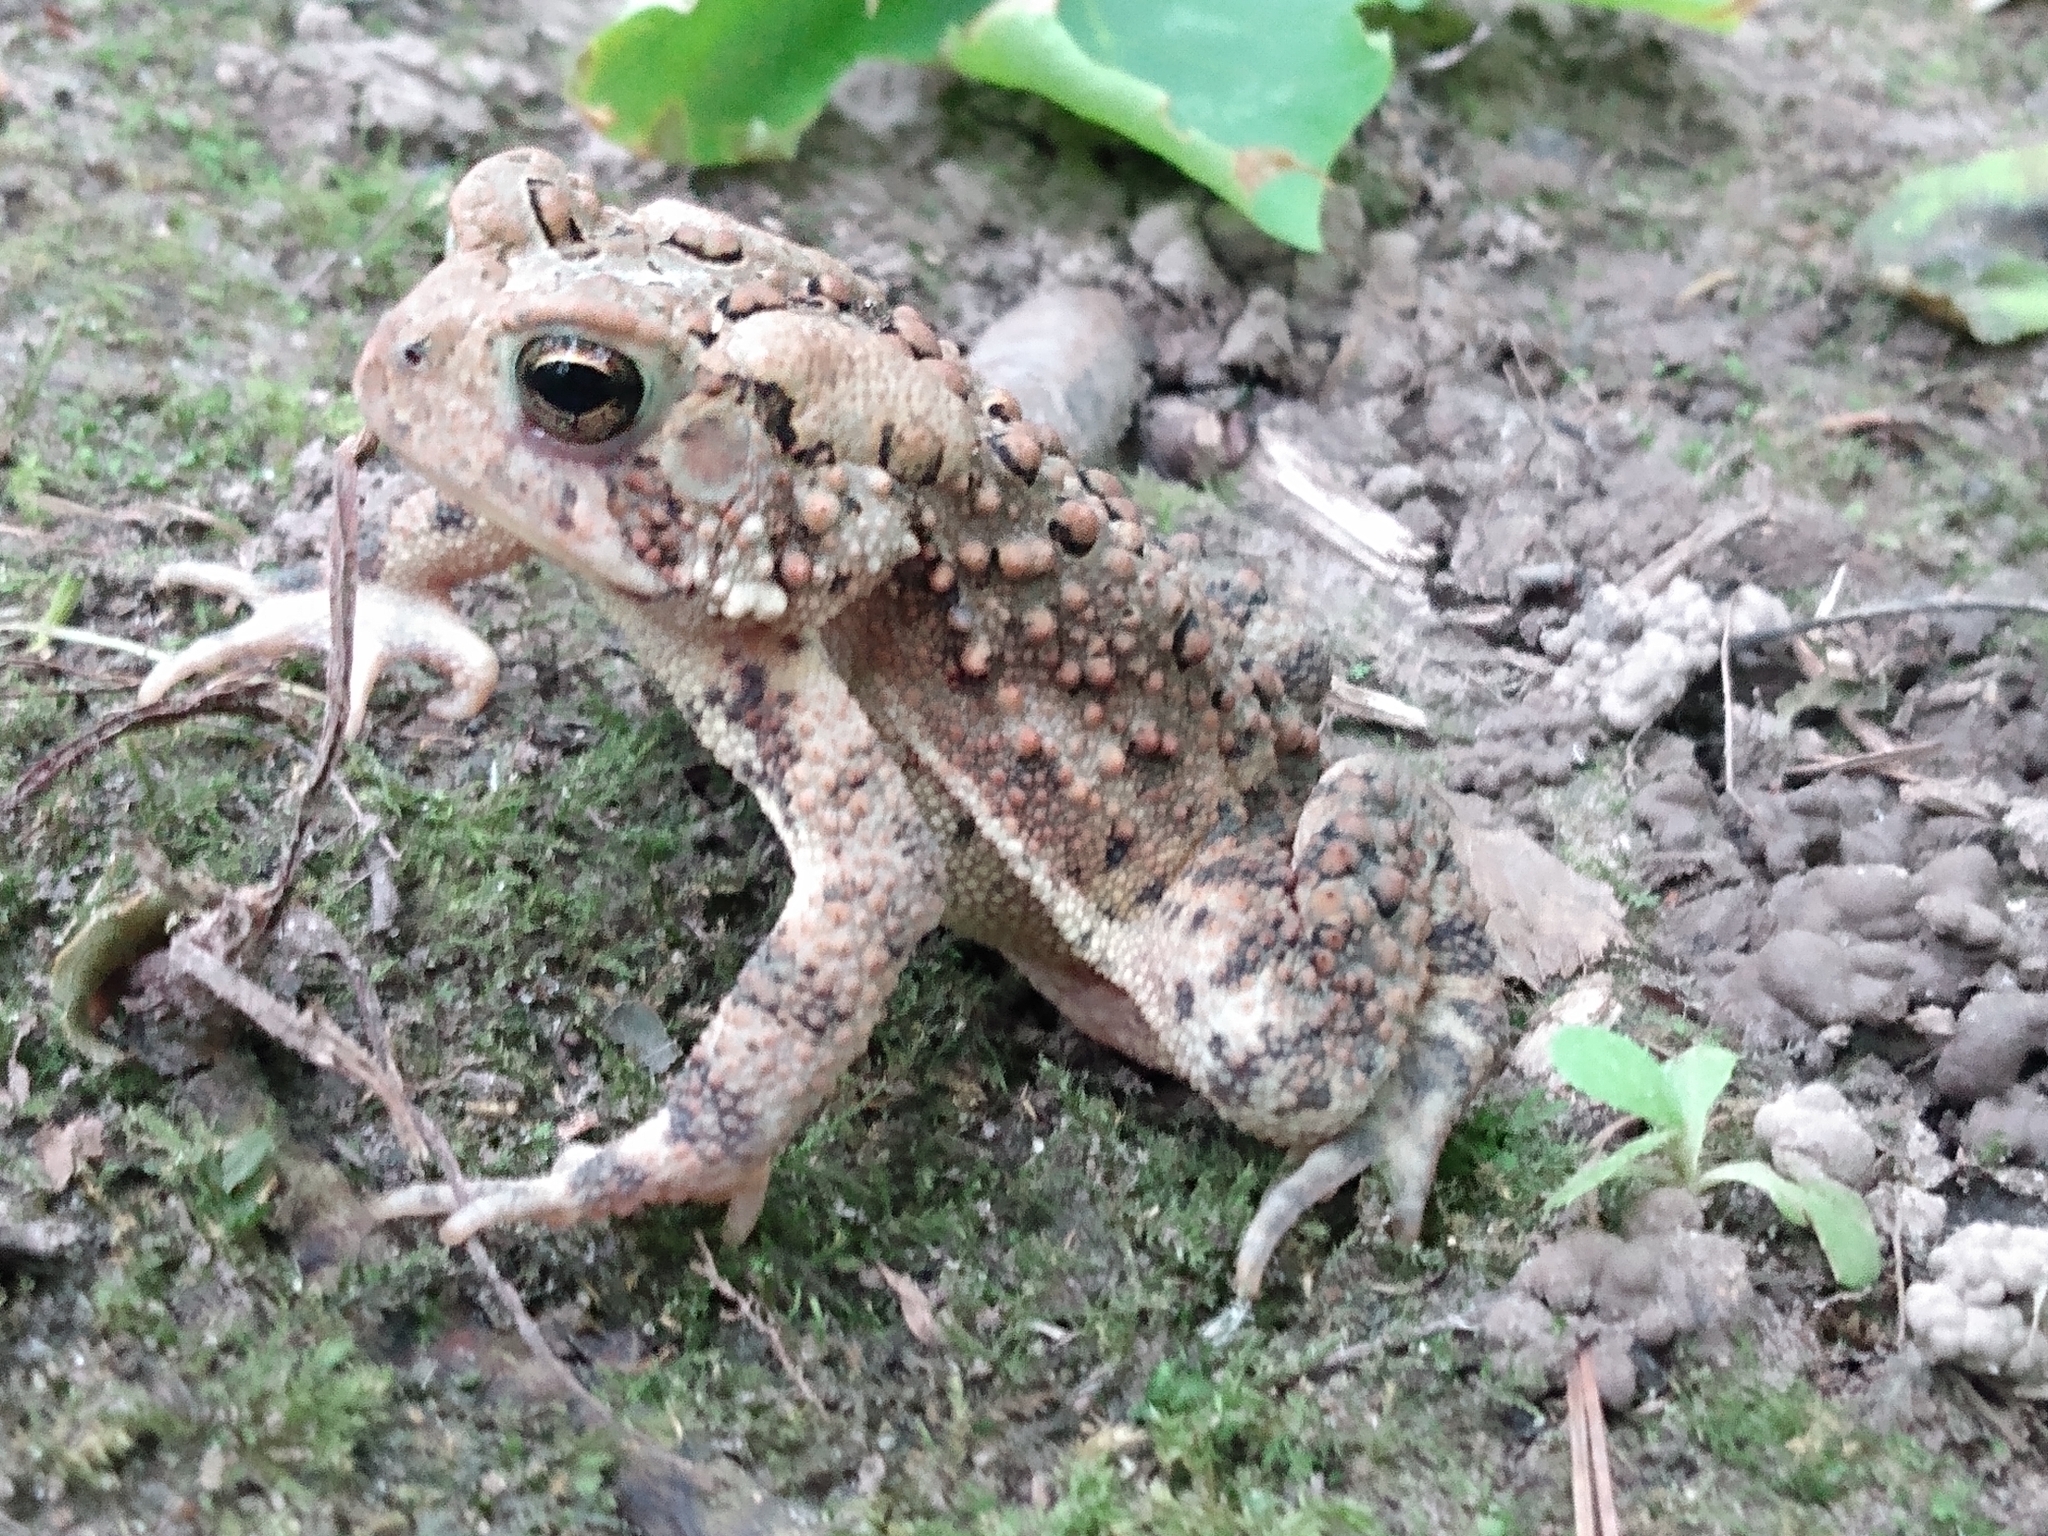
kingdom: Animalia
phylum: Chordata
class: Amphibia
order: Anura
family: Bufonidae
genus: Anaxyrus
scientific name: Anaxyrus americanus
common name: American toad
